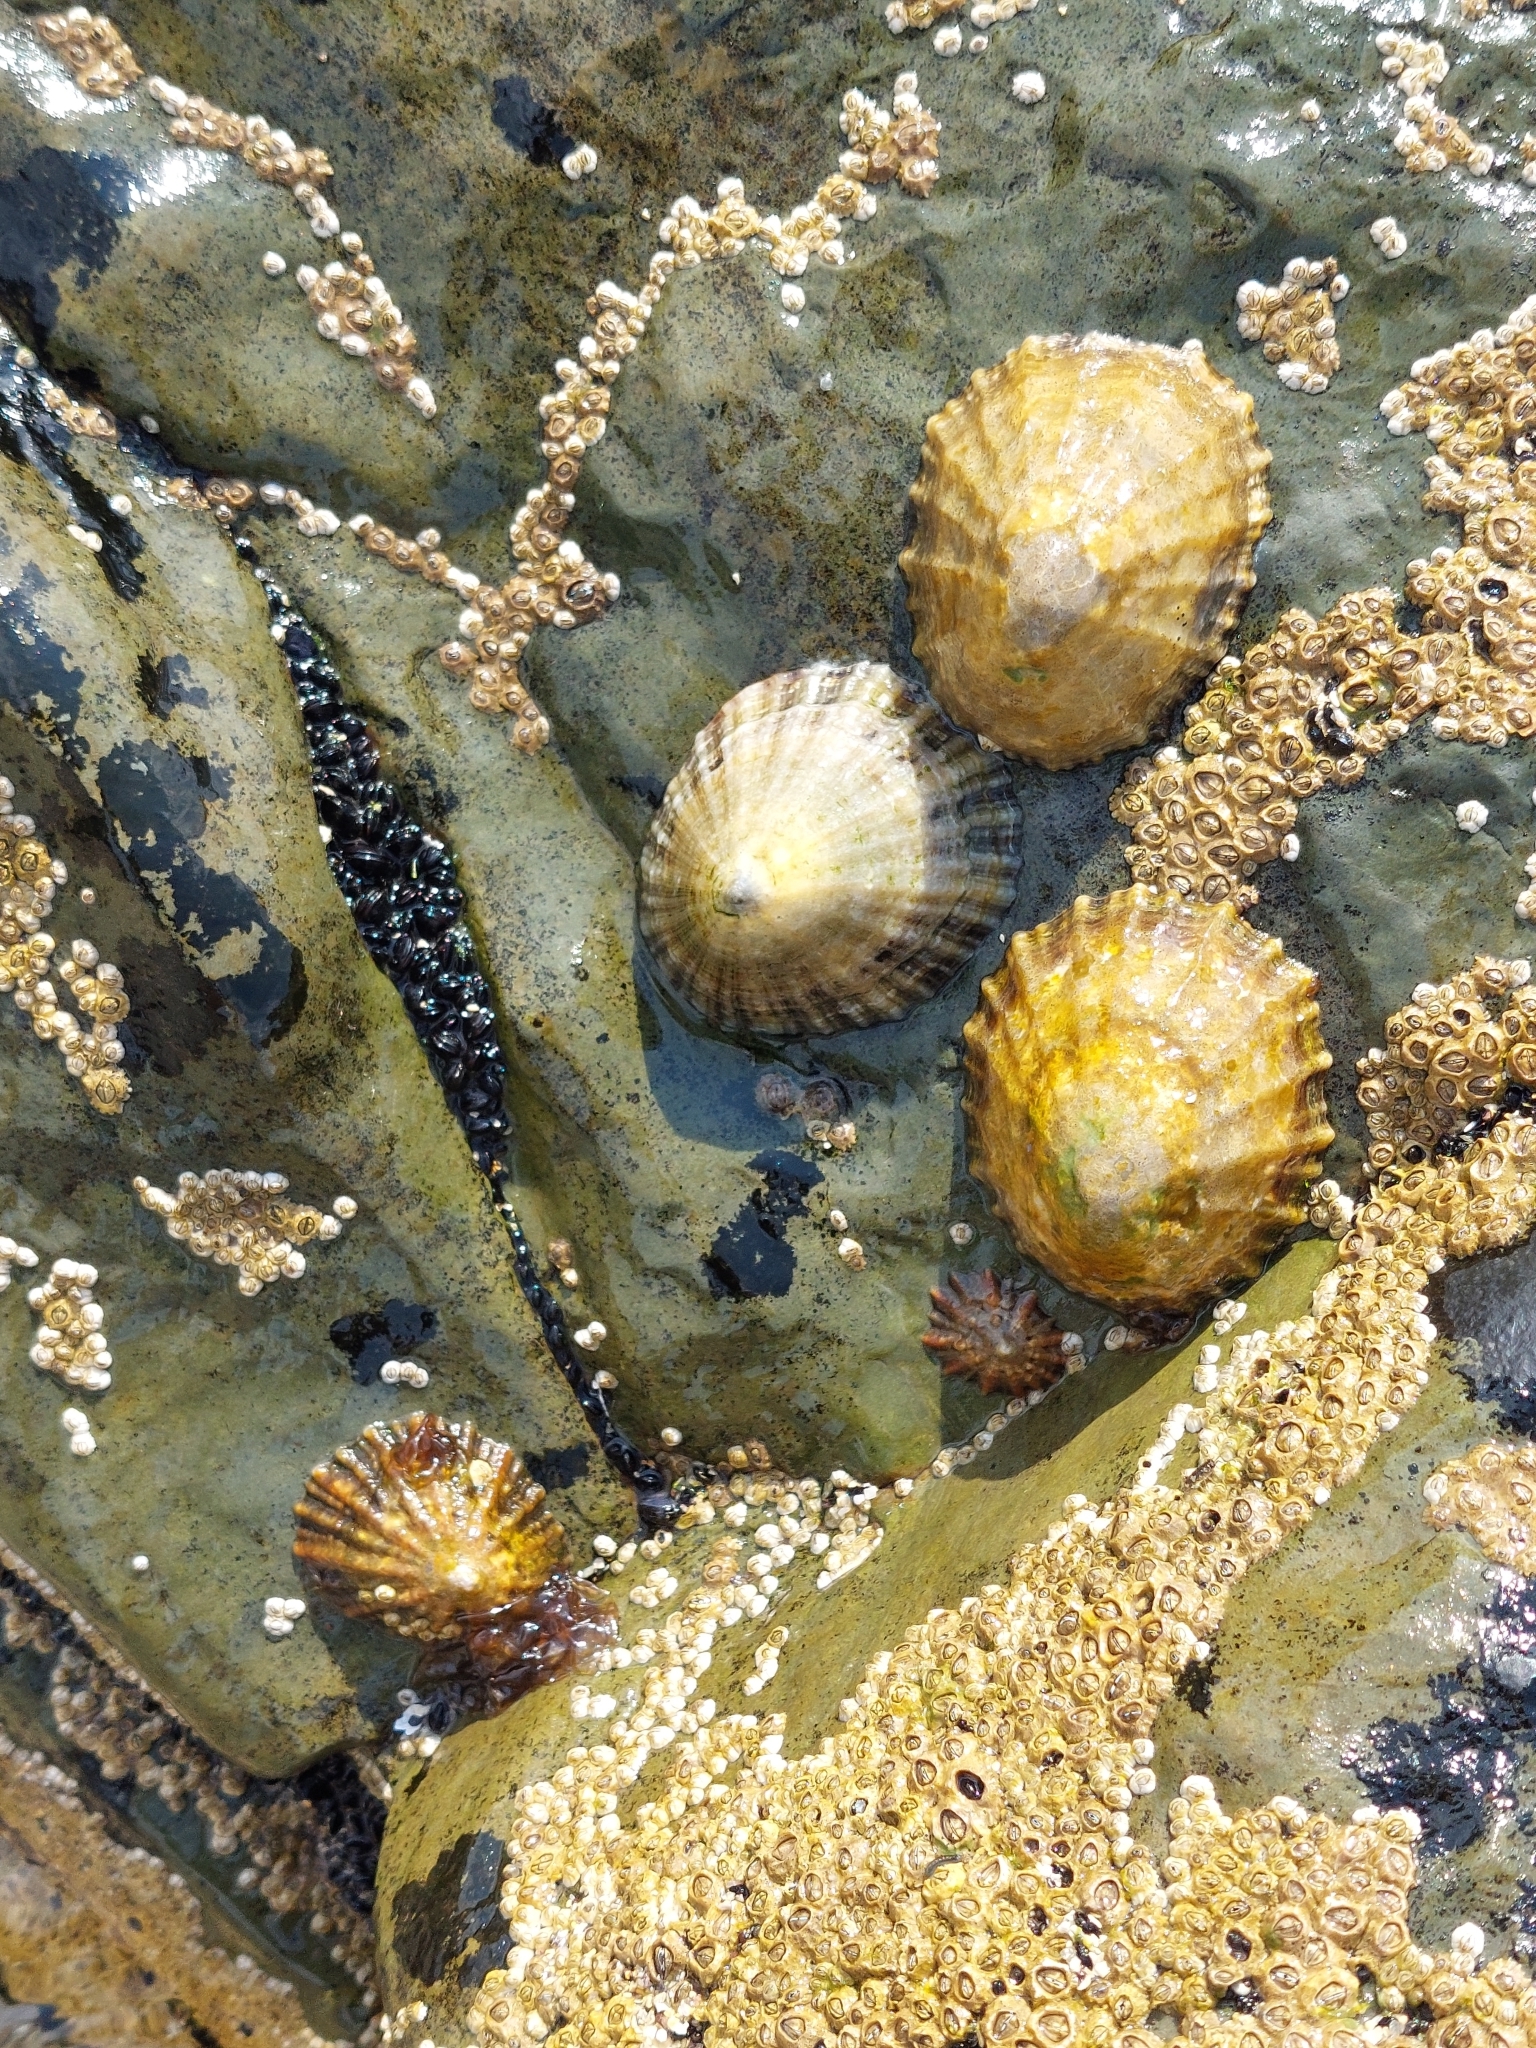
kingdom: Animalia
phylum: Mollusca
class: Gastropoda
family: Patellidae
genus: Patella
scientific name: Patella vulgata
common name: Common limpet
